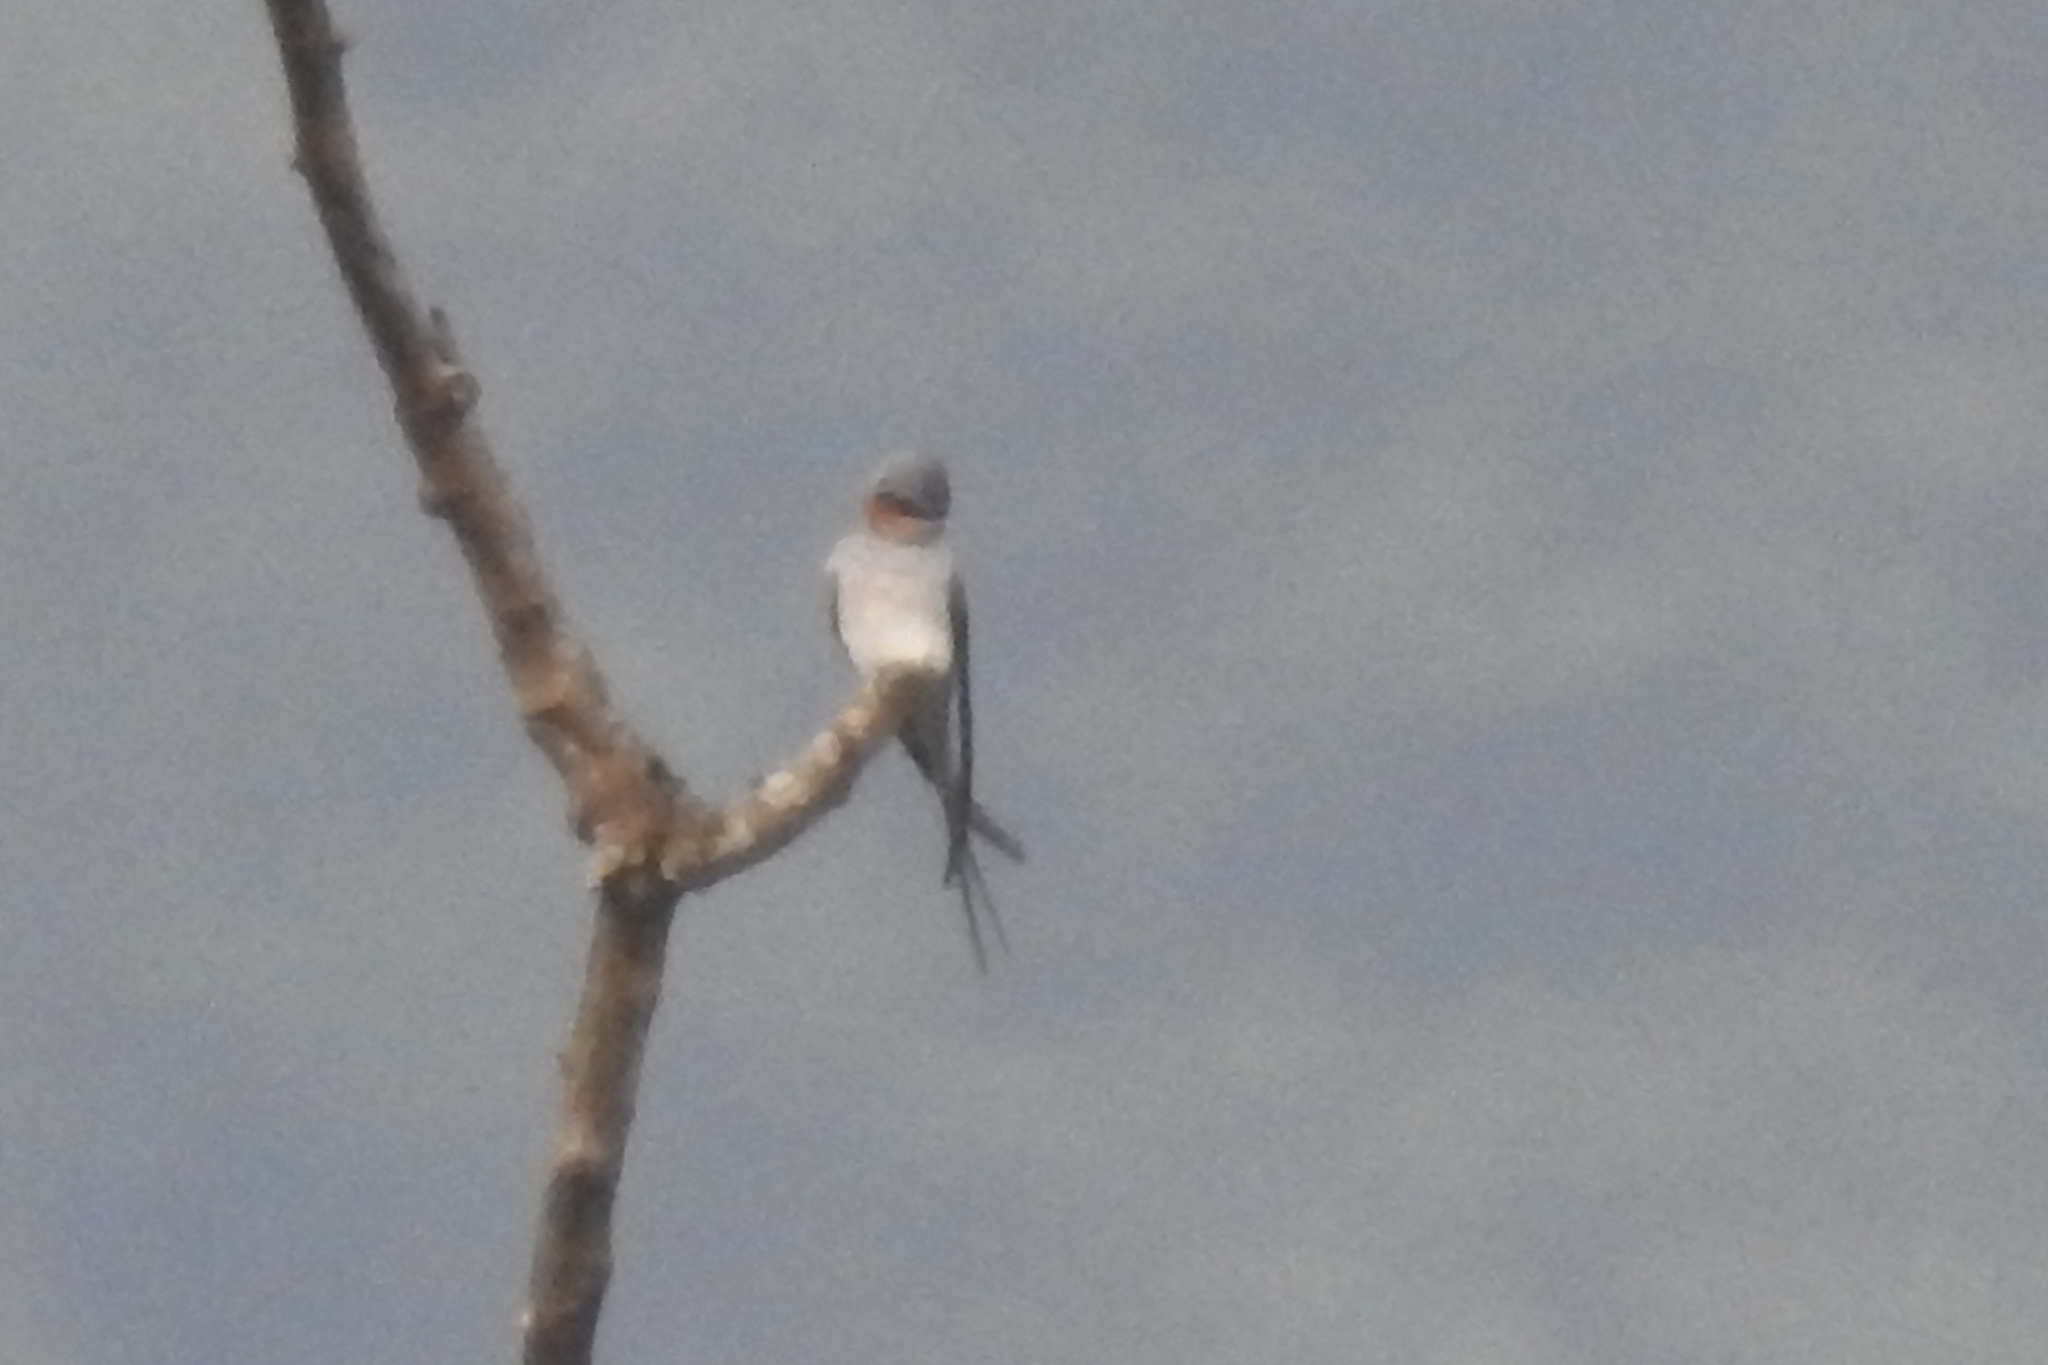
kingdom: Animalia
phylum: Chordata
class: Aves
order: Apodiformes
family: Hemiprocnidae
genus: Hemiprocne
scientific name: Hemiprocne coronata
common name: Crested treeswift
